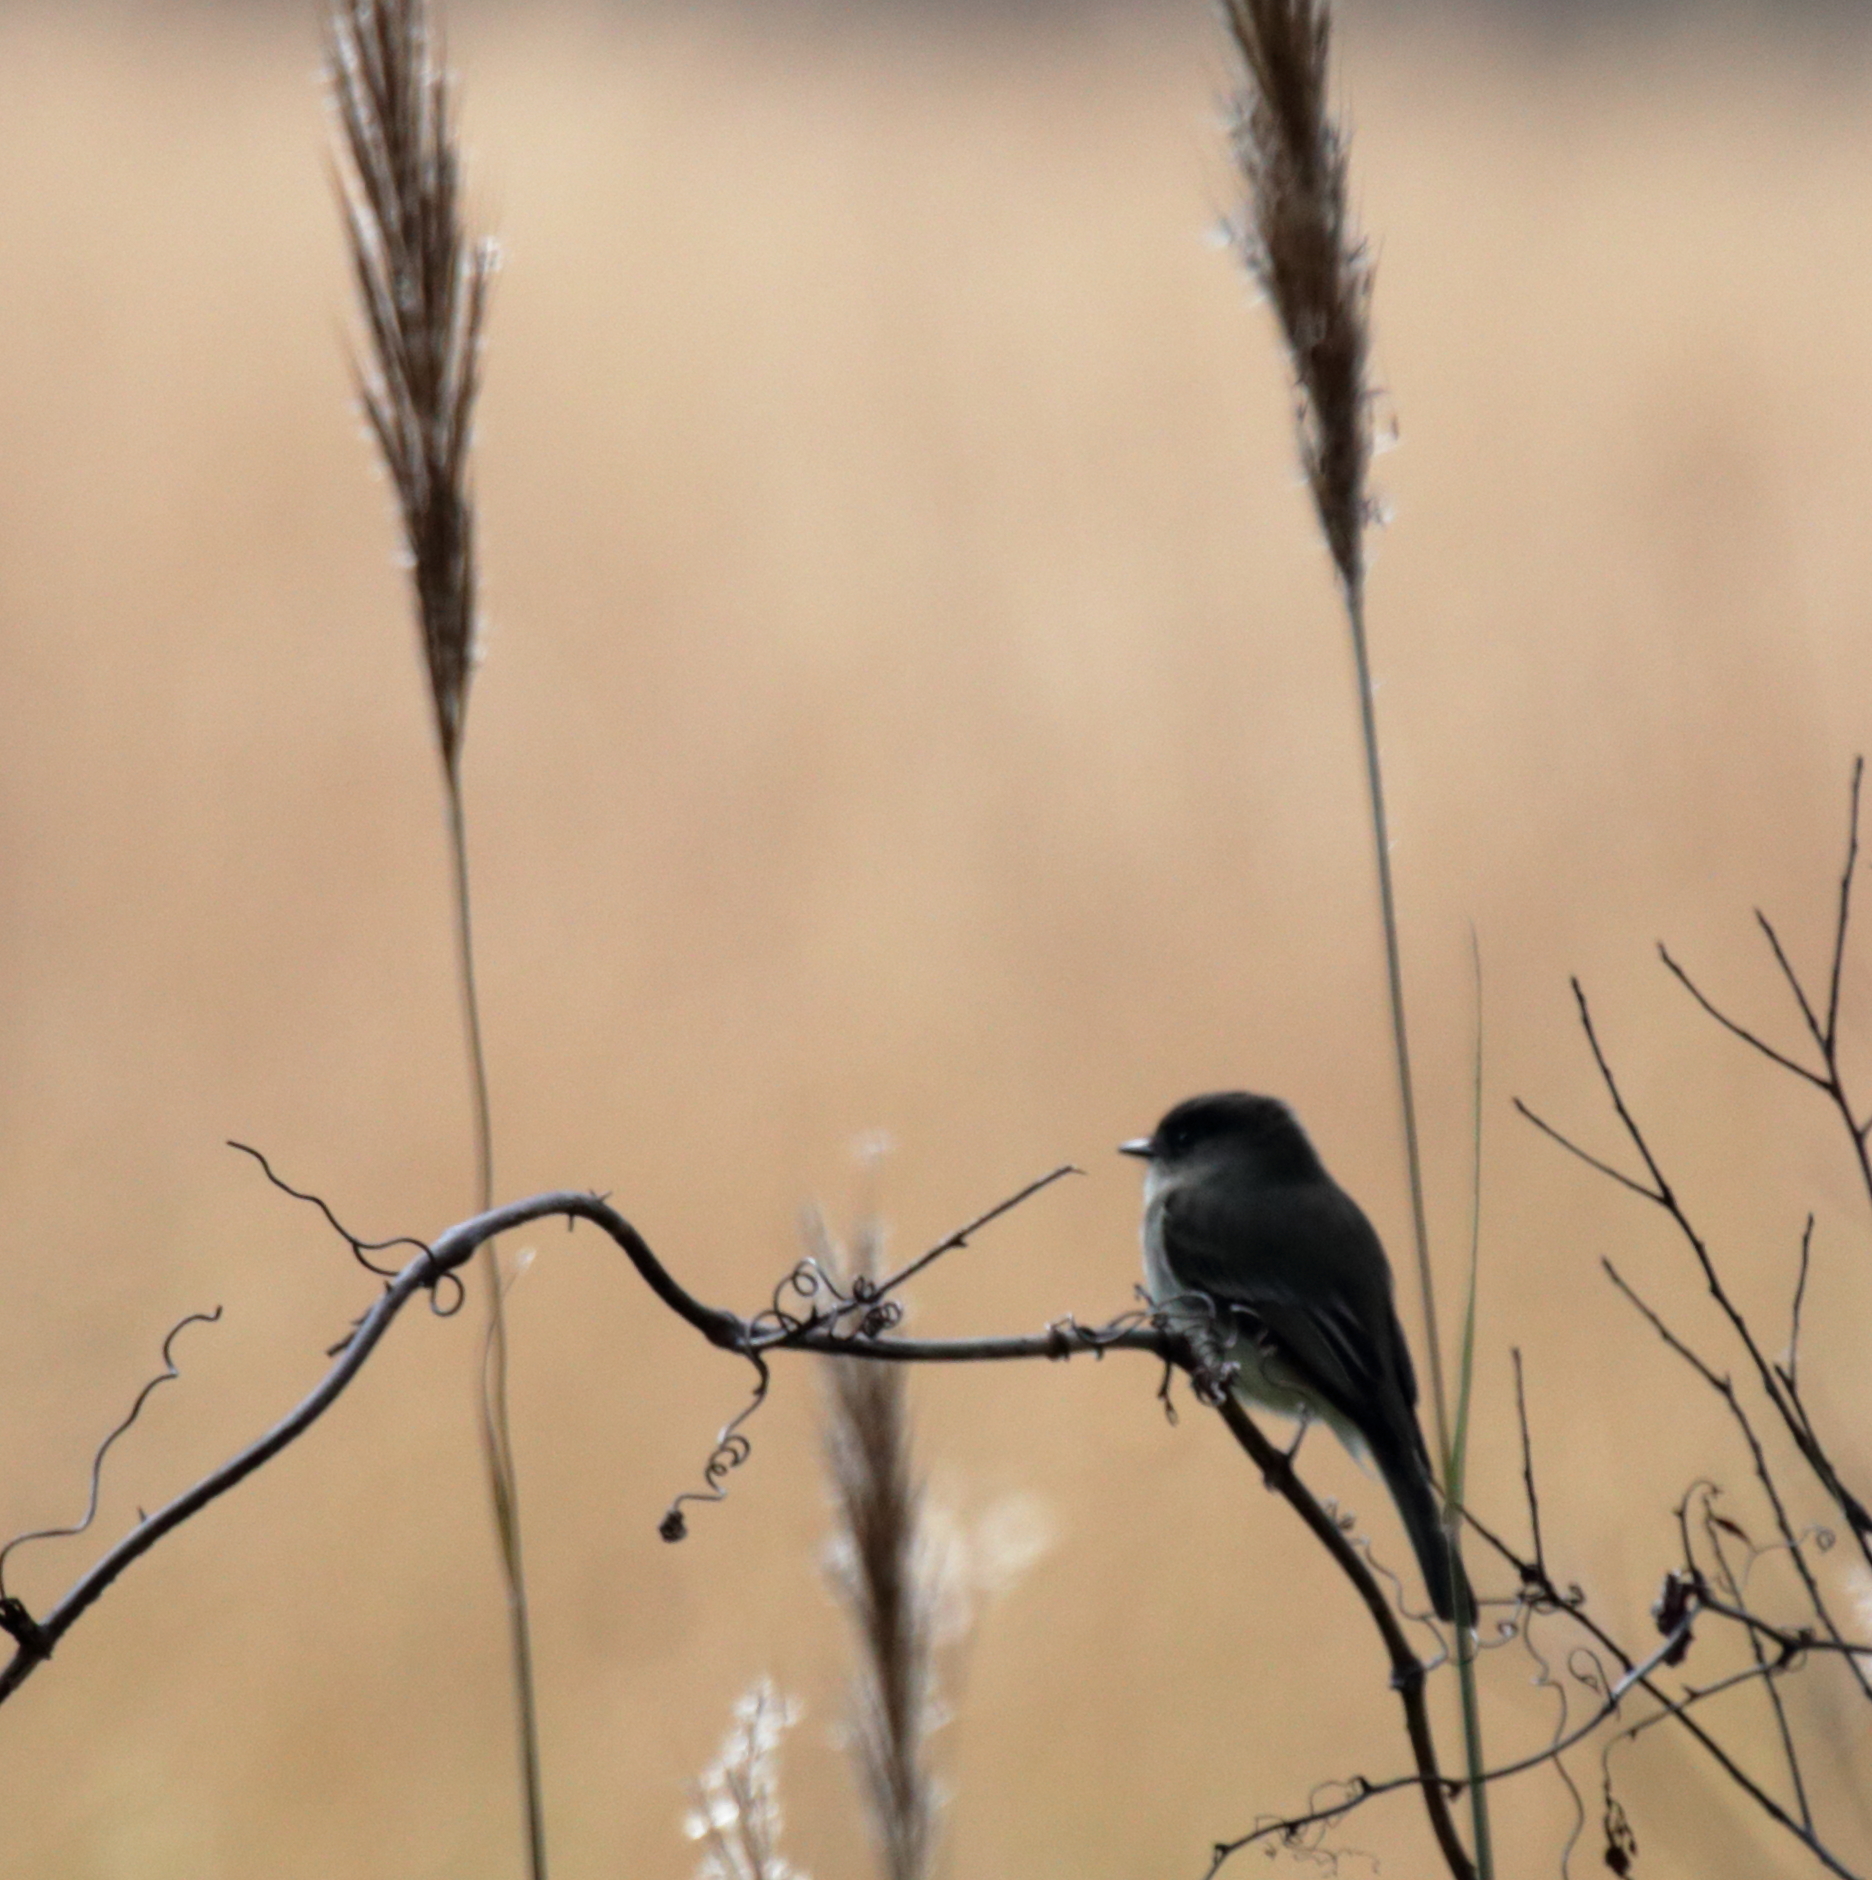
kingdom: Animalia
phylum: Chordata
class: Aves
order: Passeriformes
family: Tyrannidae
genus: Sayornis
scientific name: Sayornis phoebe
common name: Eastern phoebe
